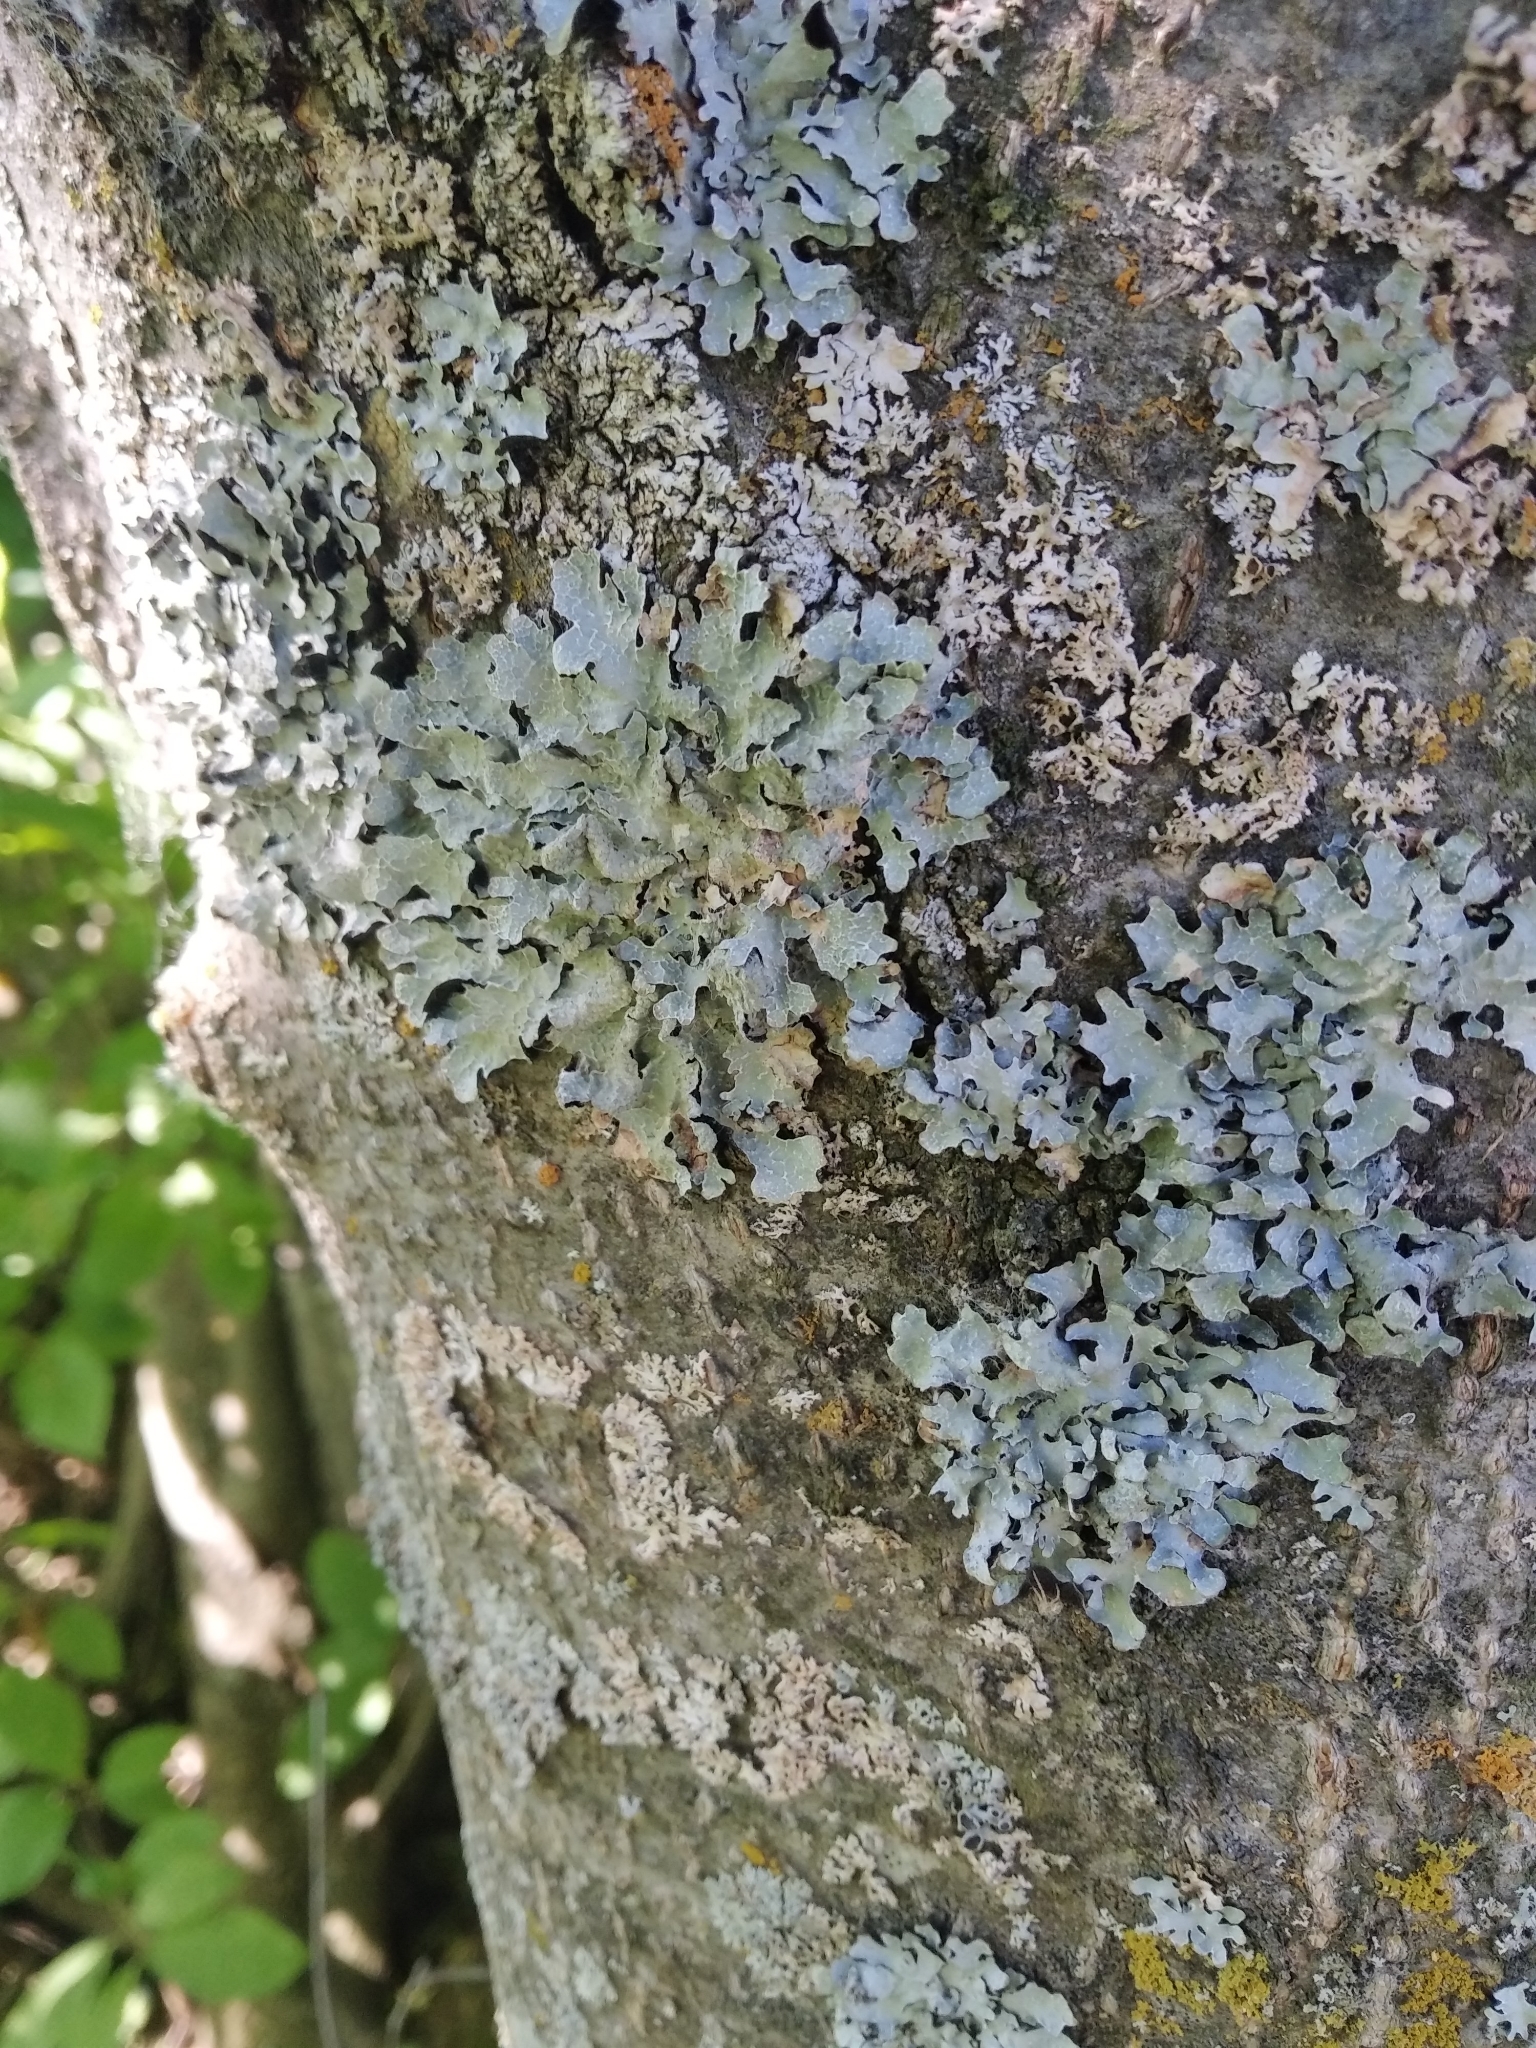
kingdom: Fungi
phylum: Ascomycota
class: Lecanoromycetes
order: Lecanorales
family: Parmeliaceae
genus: Parmelia
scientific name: Parmelia sulcata
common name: Netted shield lichen
